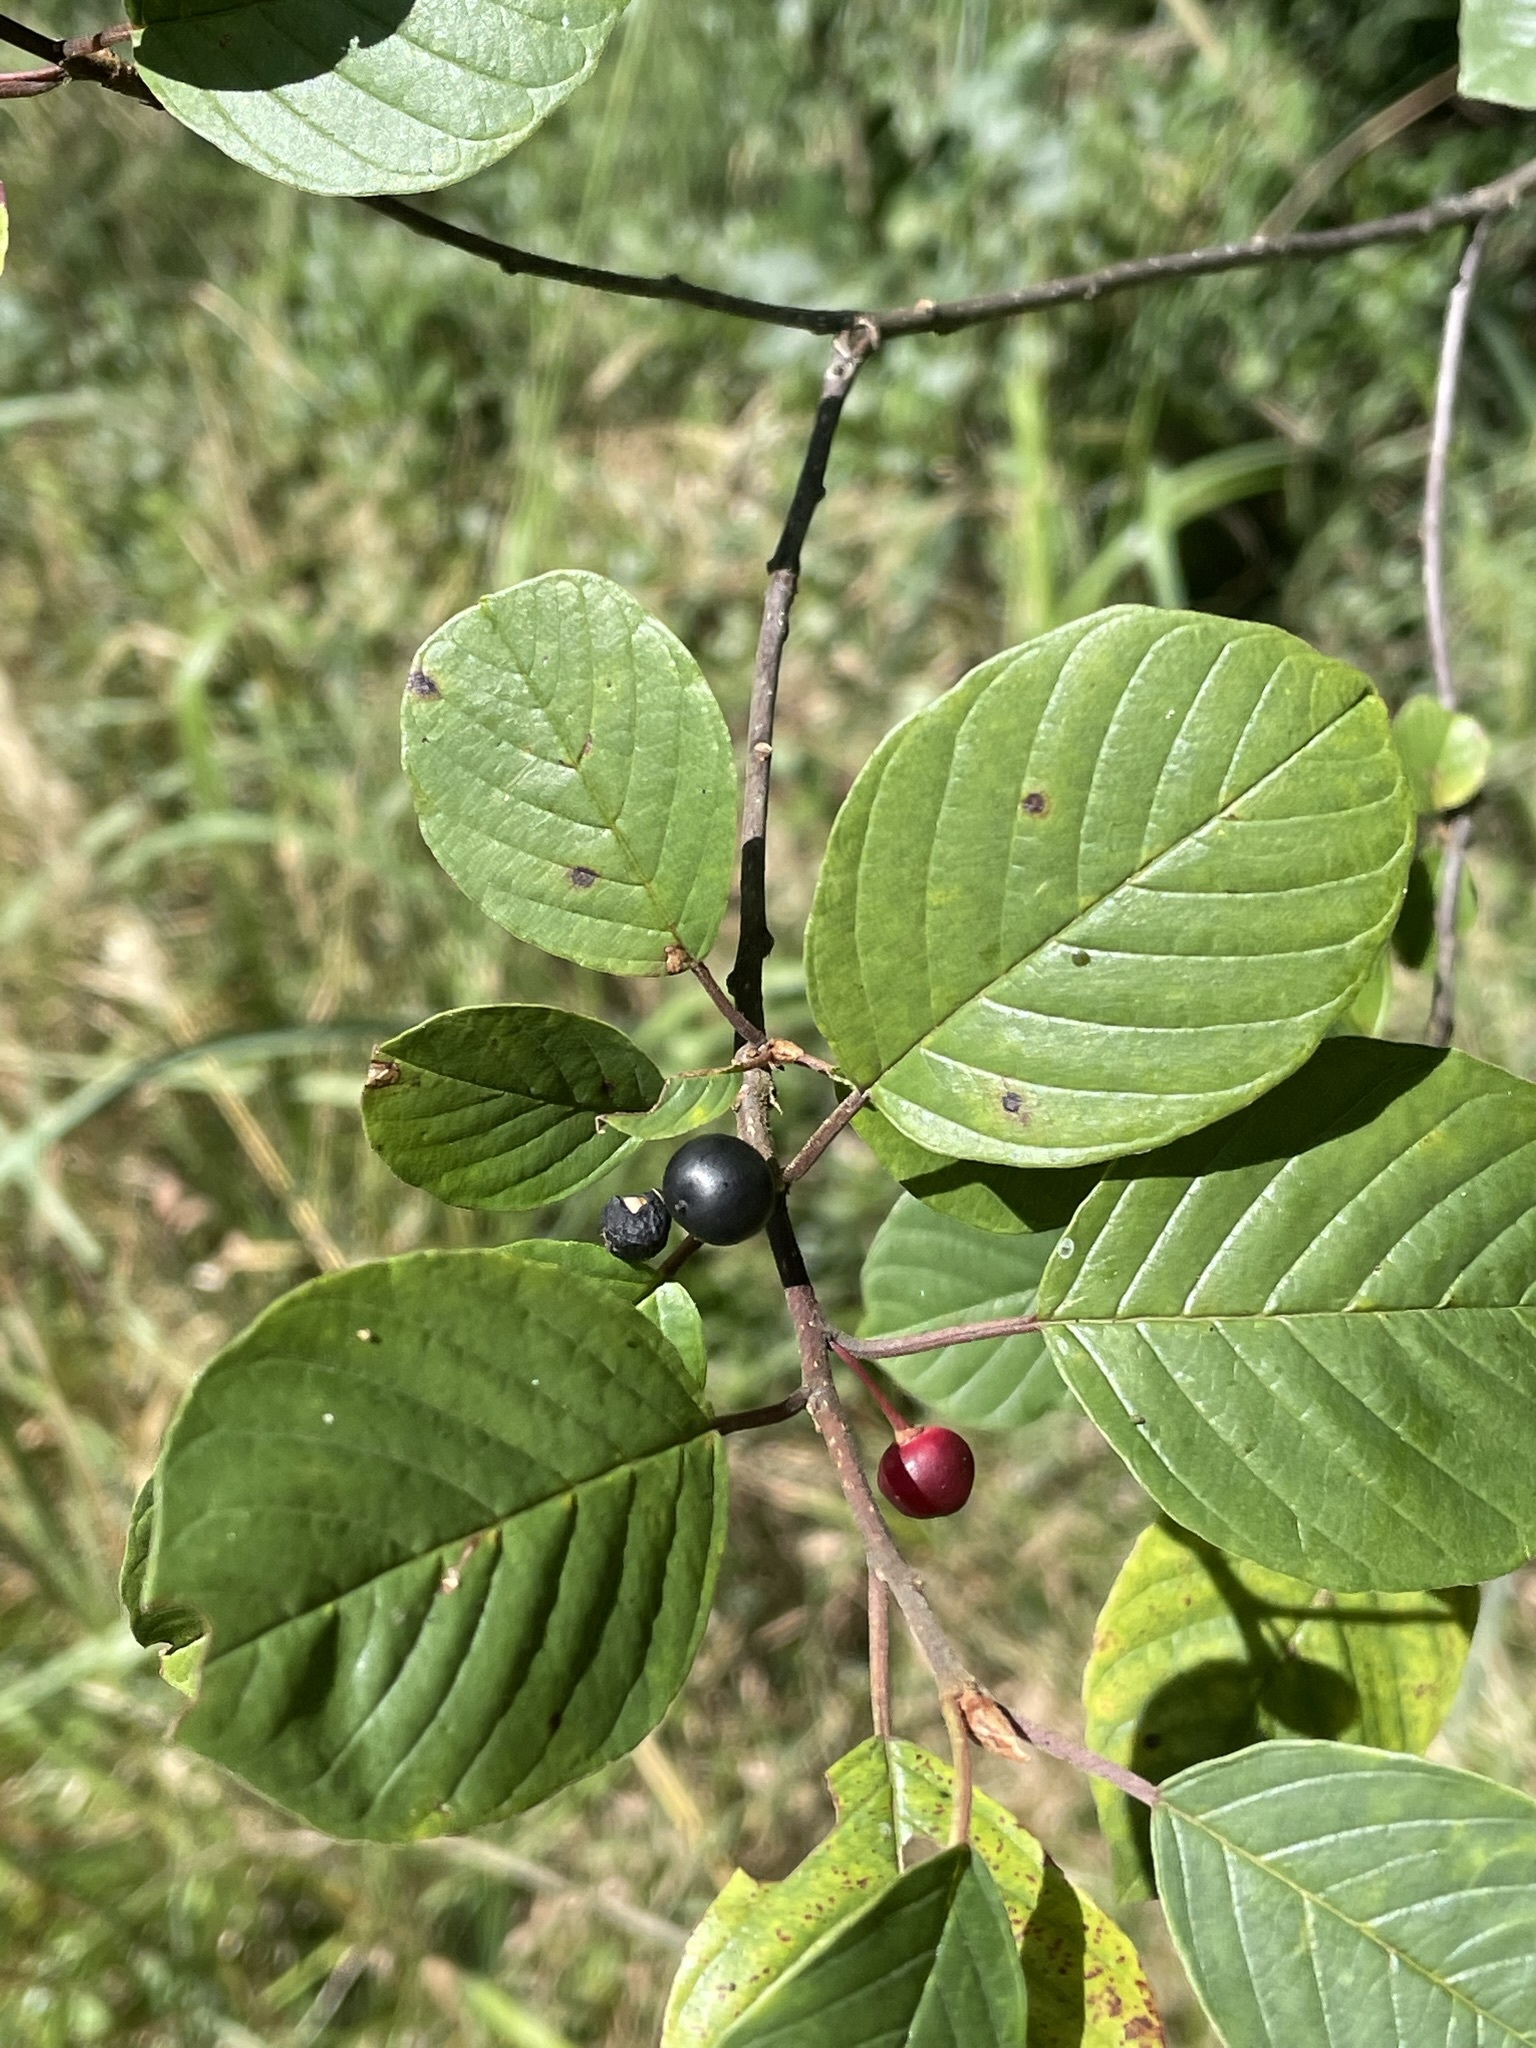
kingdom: Plantae
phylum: Tracheophyta
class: Magnoliopsida
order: Rosales
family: Rhamnaceae
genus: Frangula
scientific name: Frangula alnus
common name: Alder buckthorn
